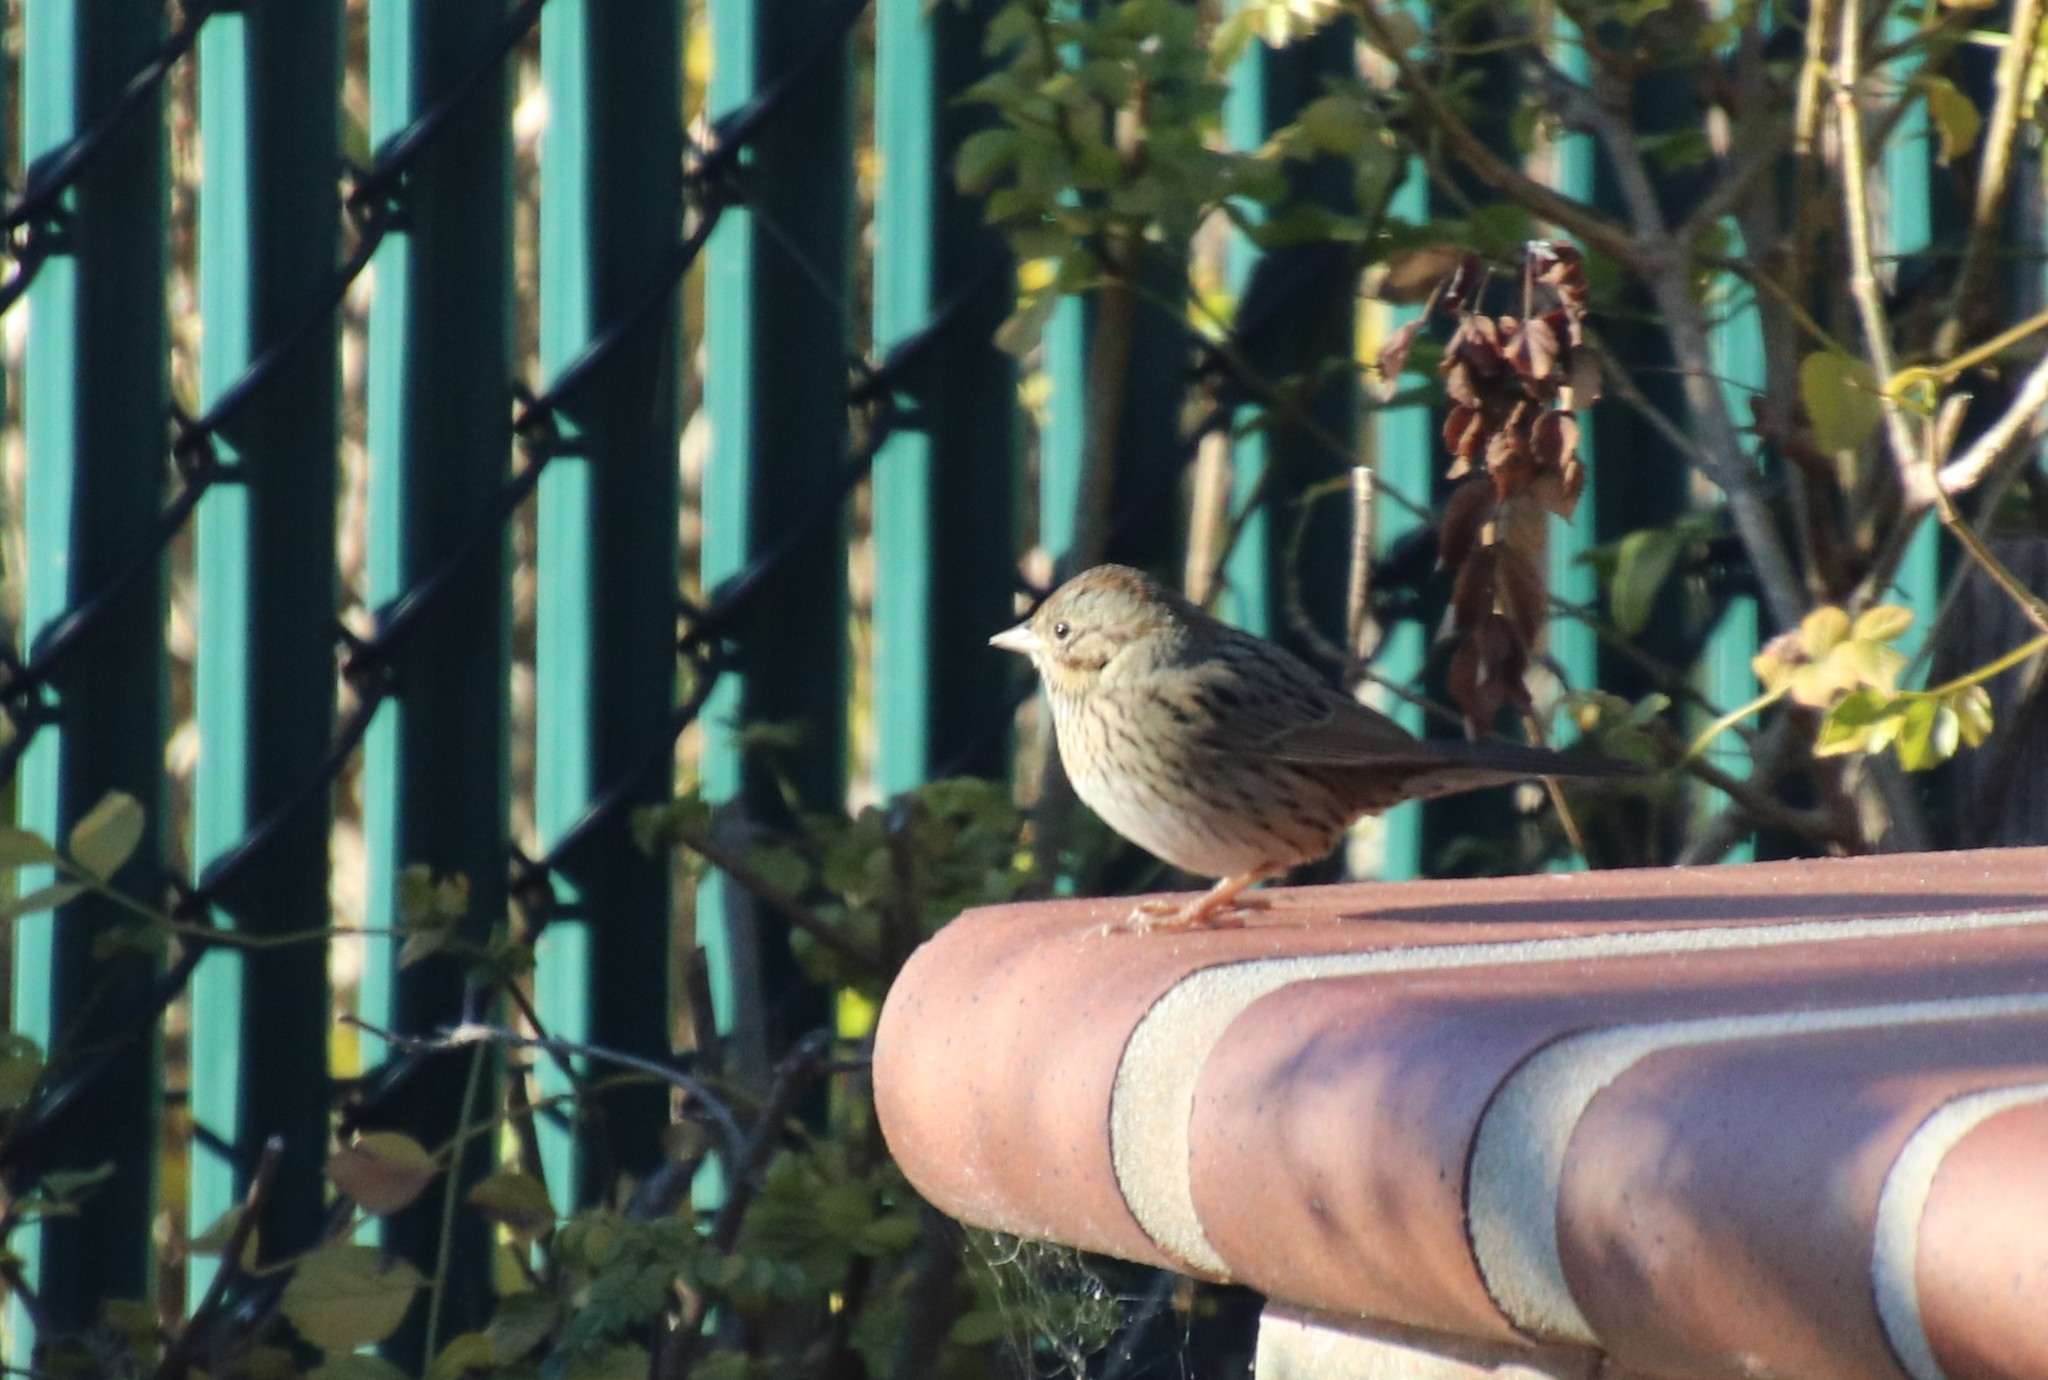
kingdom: Animalia
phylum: Chordata
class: Aves
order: Passeriformes
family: Passerellidae
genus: Melospiza
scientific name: Melospiza lincolnii
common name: Lincoln's sparrow
